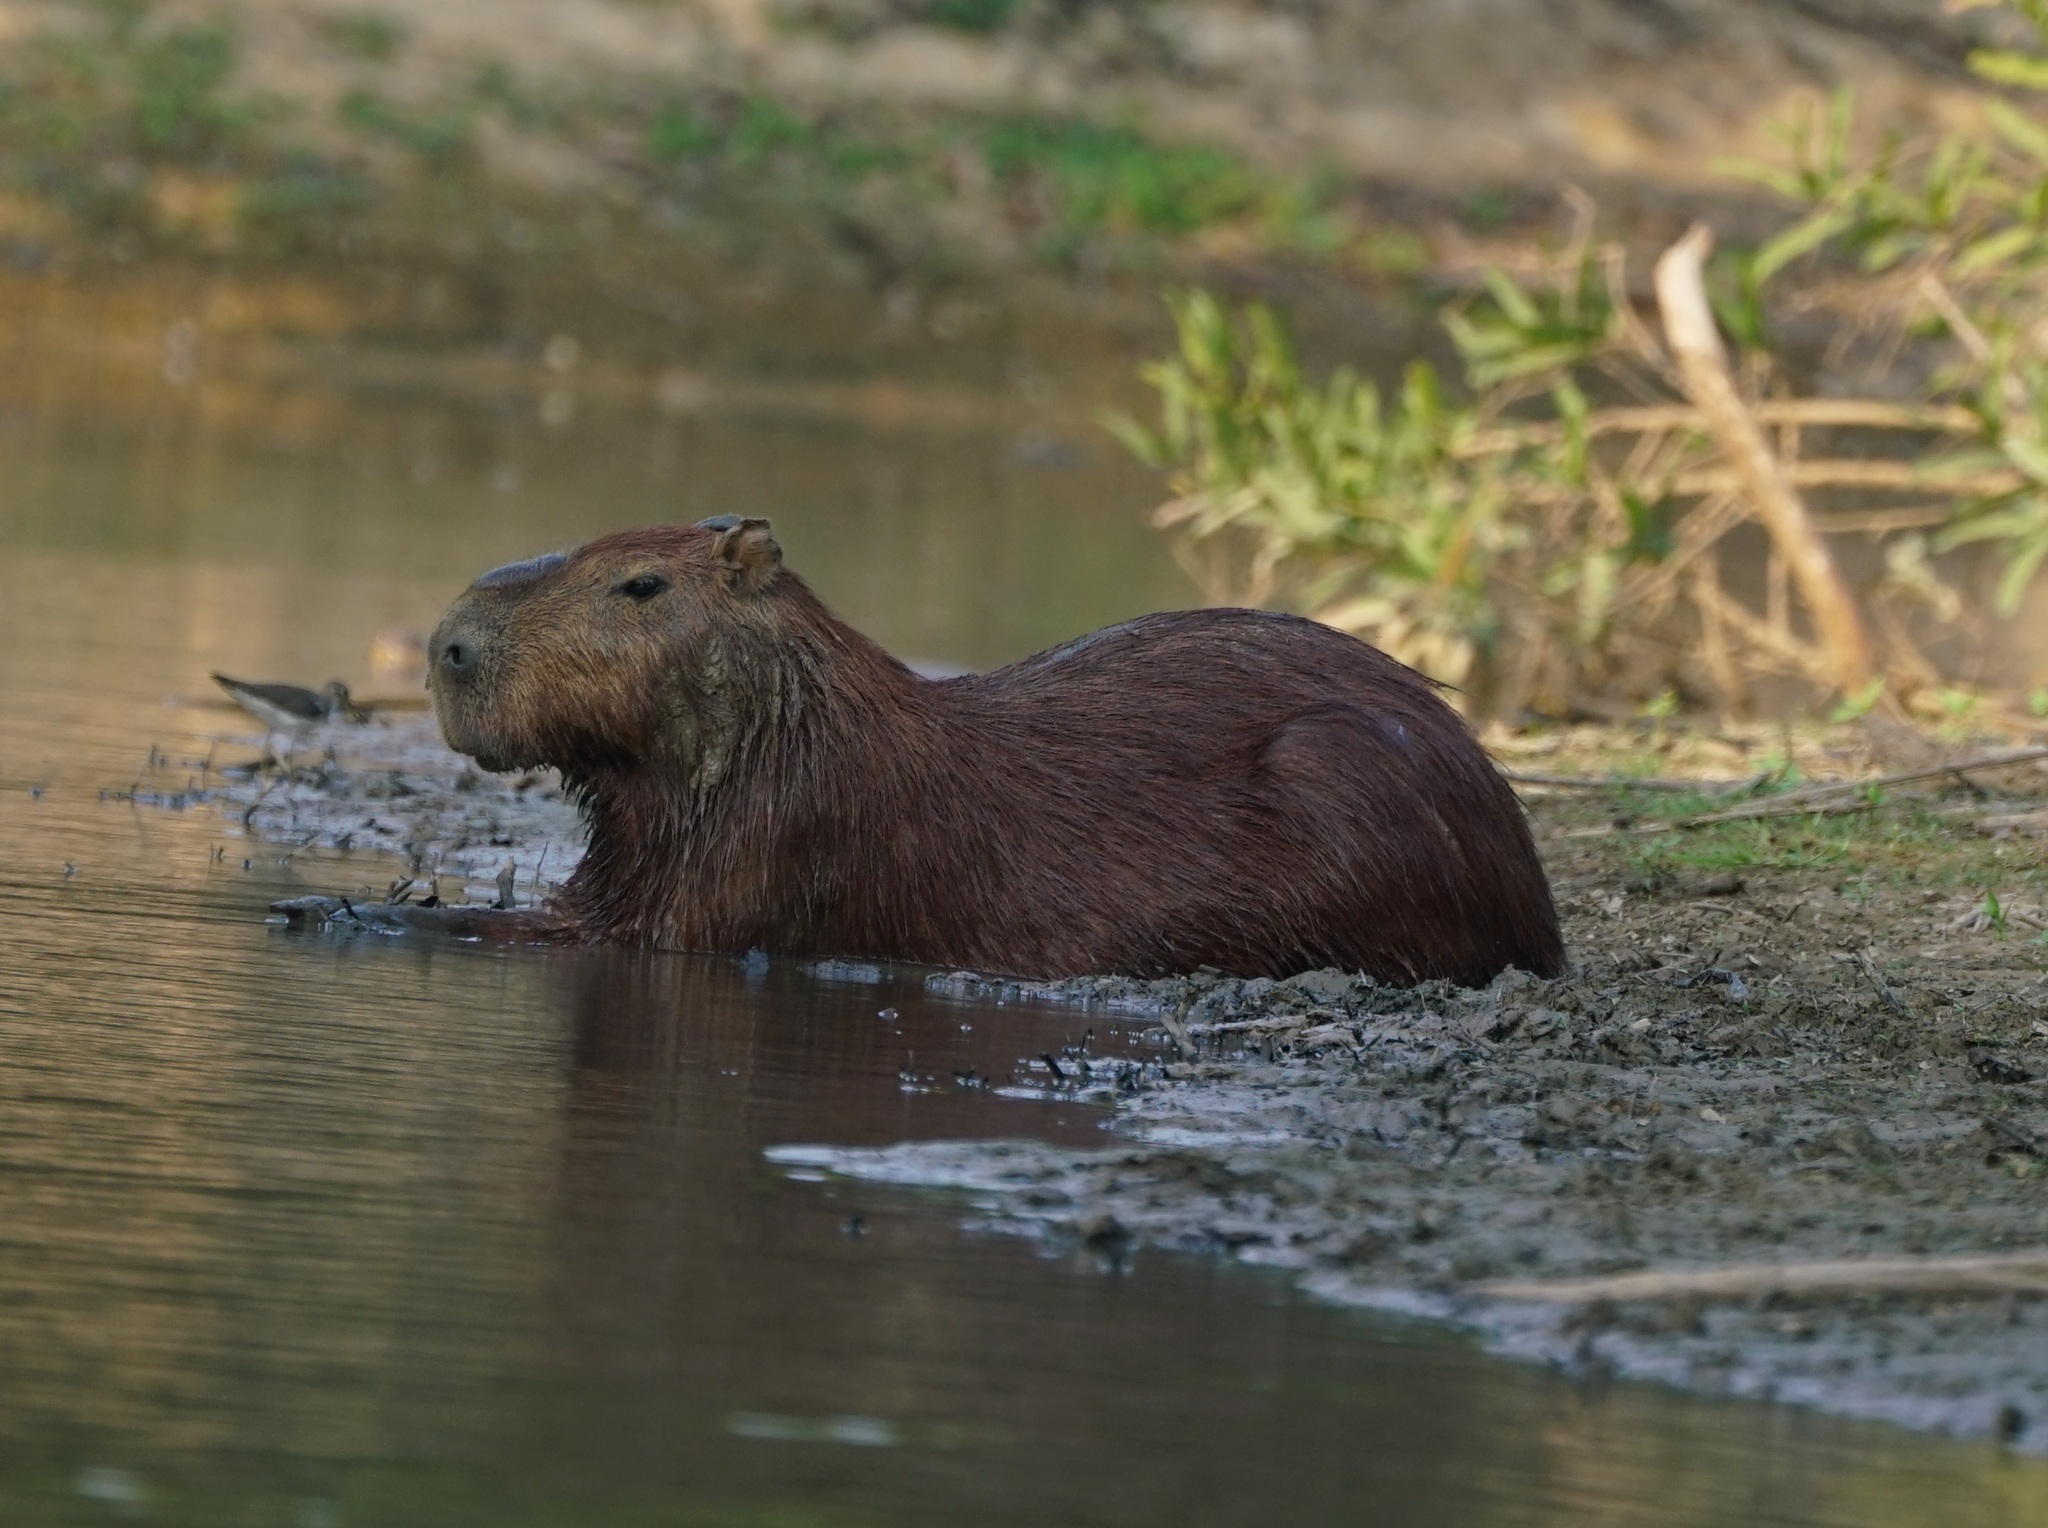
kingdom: Animalia
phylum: Chordata
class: Mammalia
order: Rodentia
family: Caviidae
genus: Hydrochoerus
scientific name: Hydrochoerus hydrochaeris
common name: Capybara
